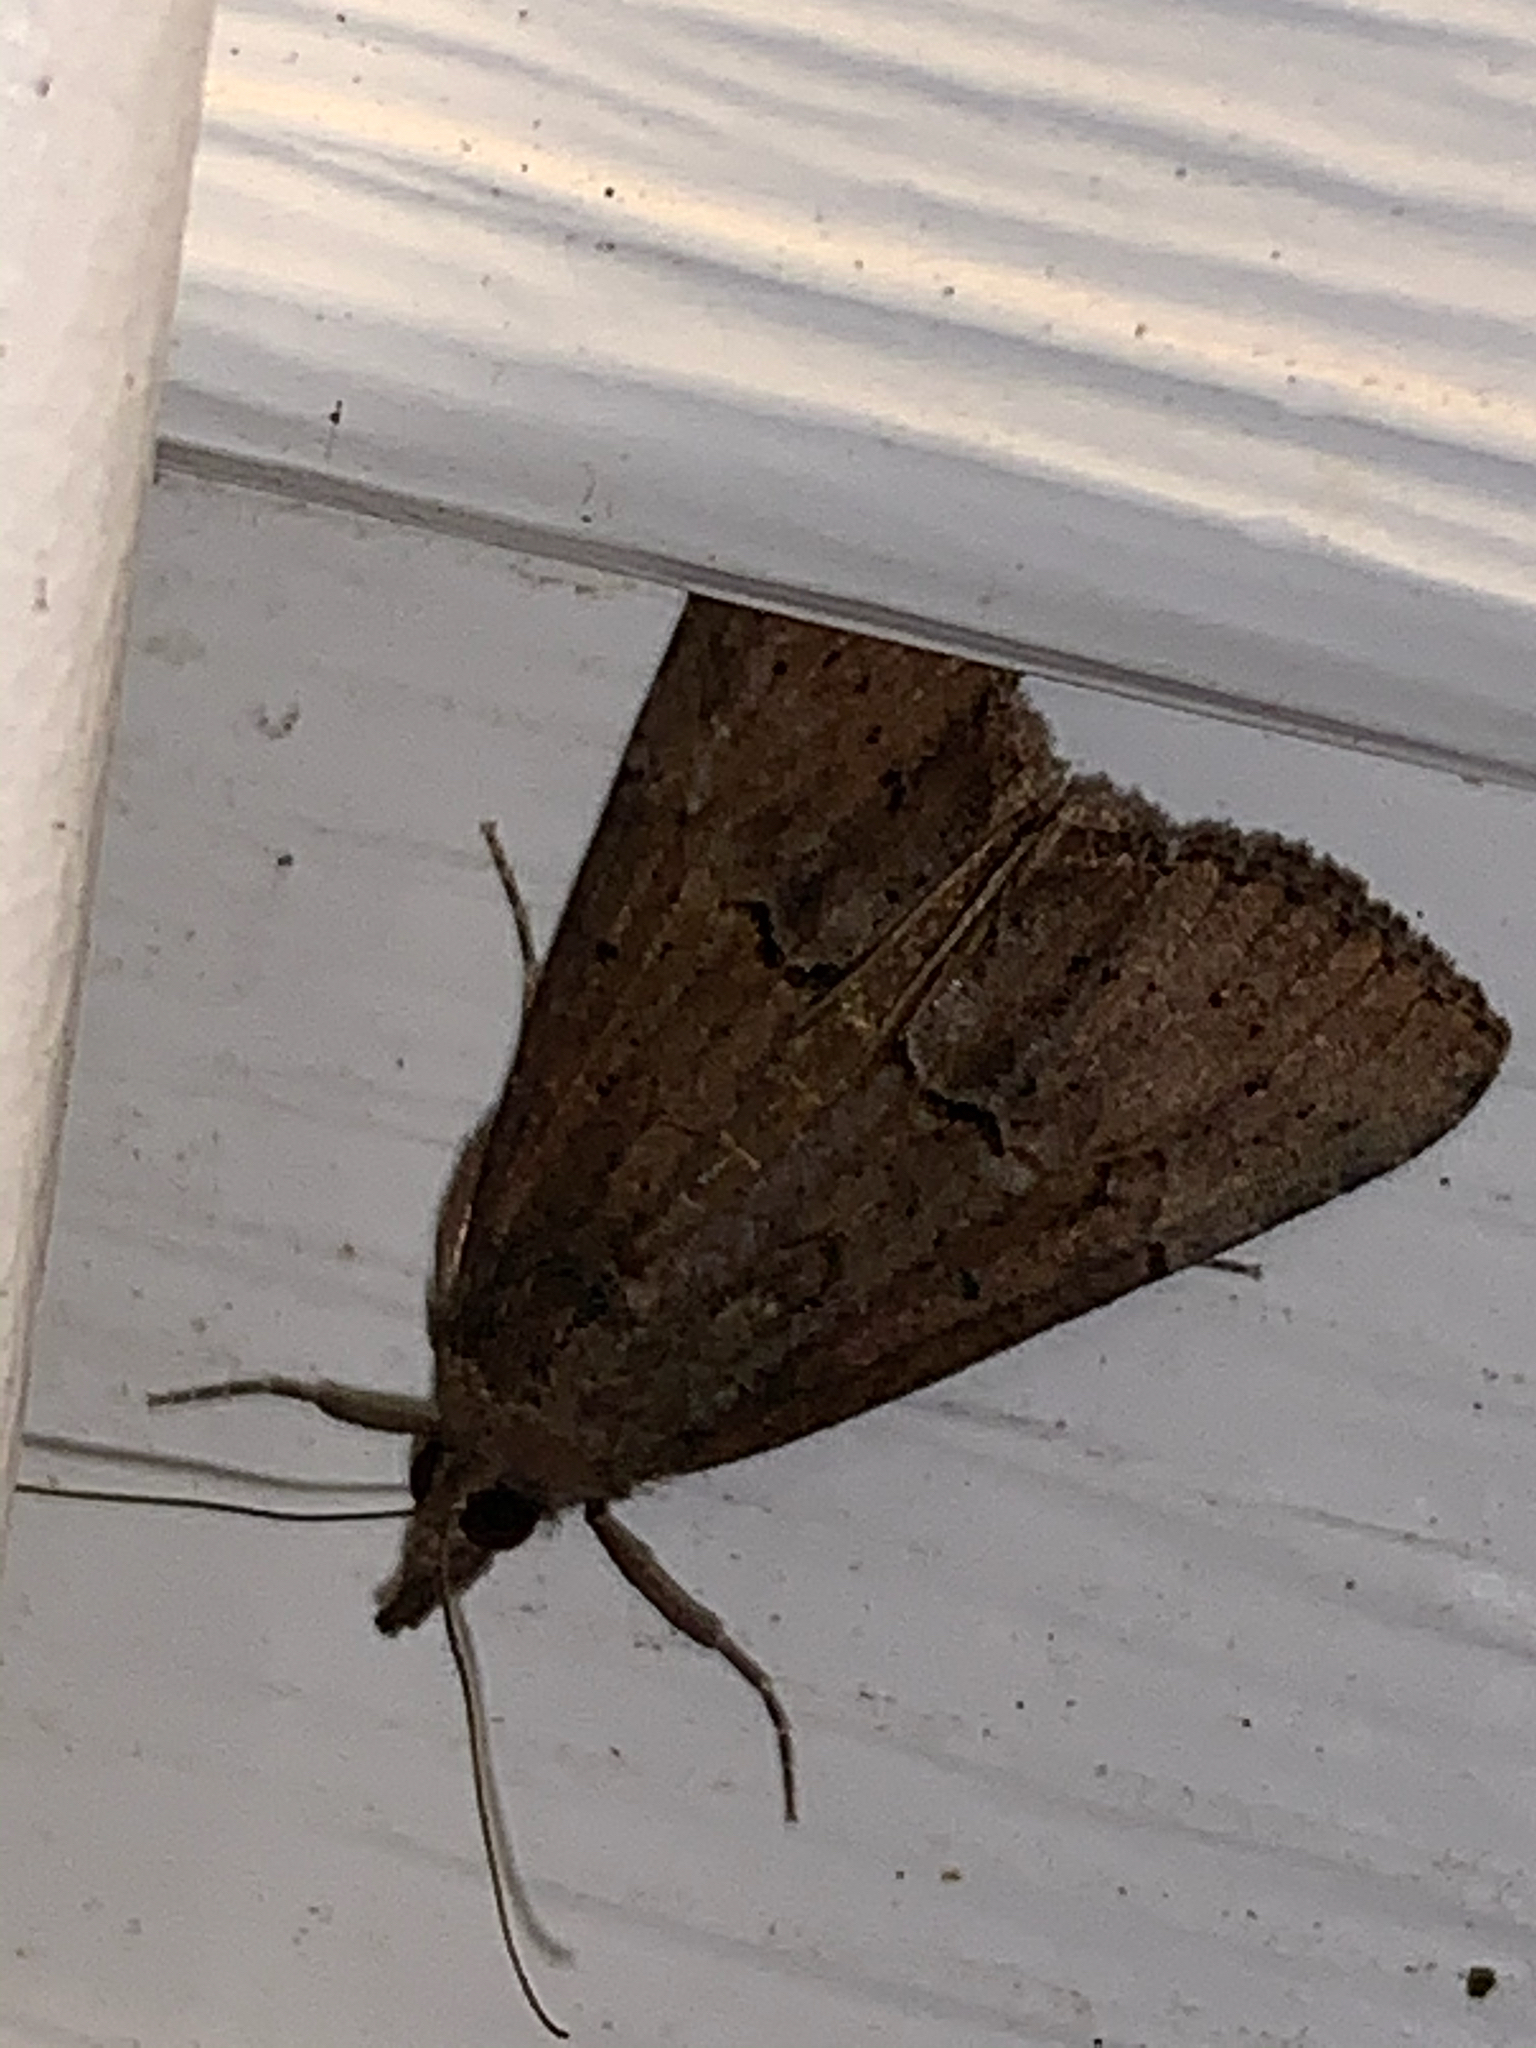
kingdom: Animalia
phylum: Arthropoda
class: Insecta
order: Lepidoptera
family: Erebidae
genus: Hypena
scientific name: Hypena scabra
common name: Green cloverworm
